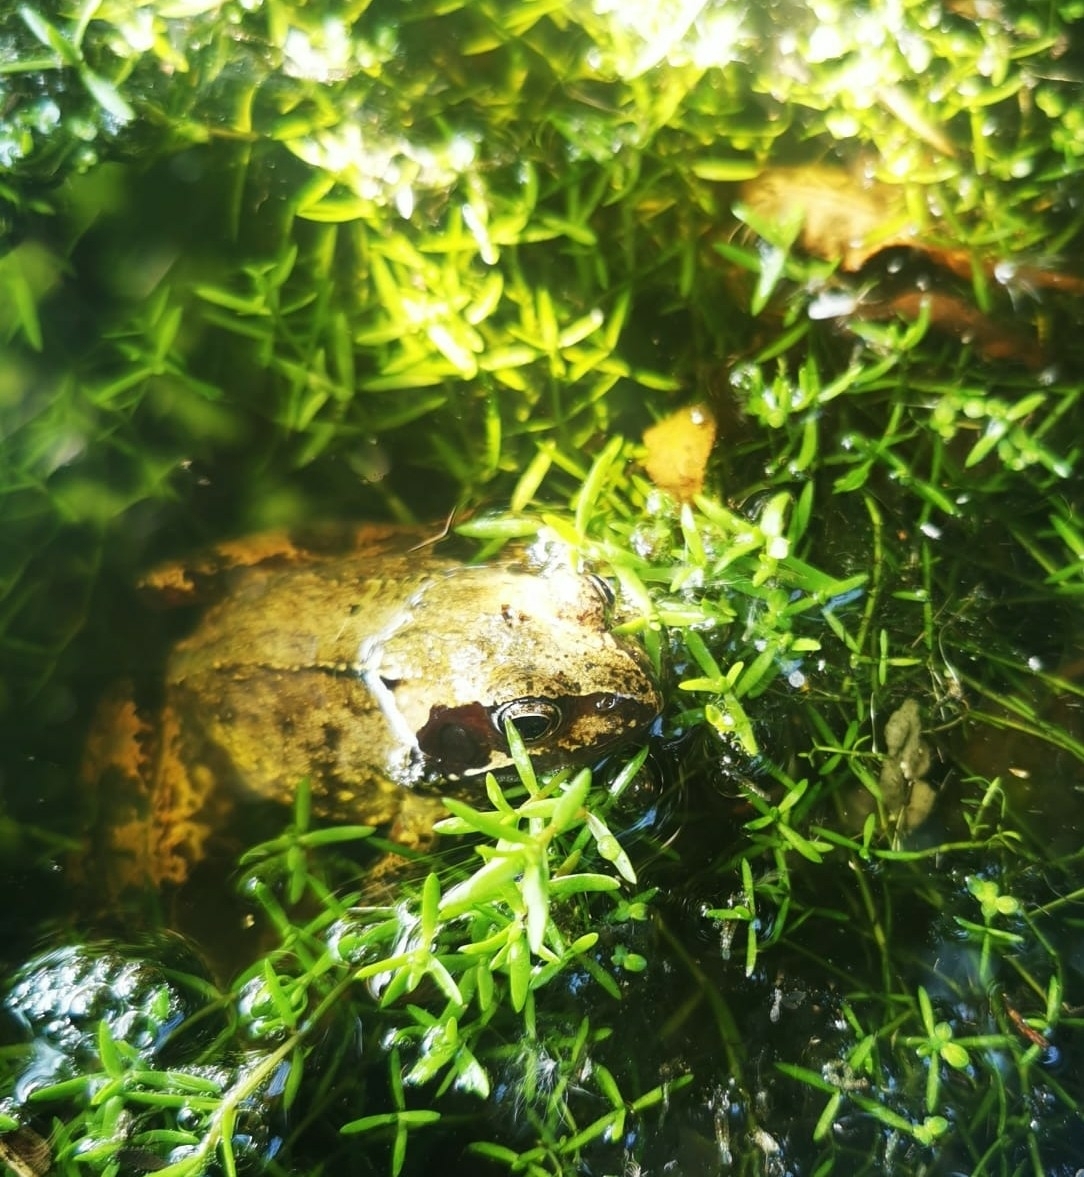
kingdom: Animalia
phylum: Chordata
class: Amphibia
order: Anura
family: Ranidae
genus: Rana
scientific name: Rana temporaria
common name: Common frog
